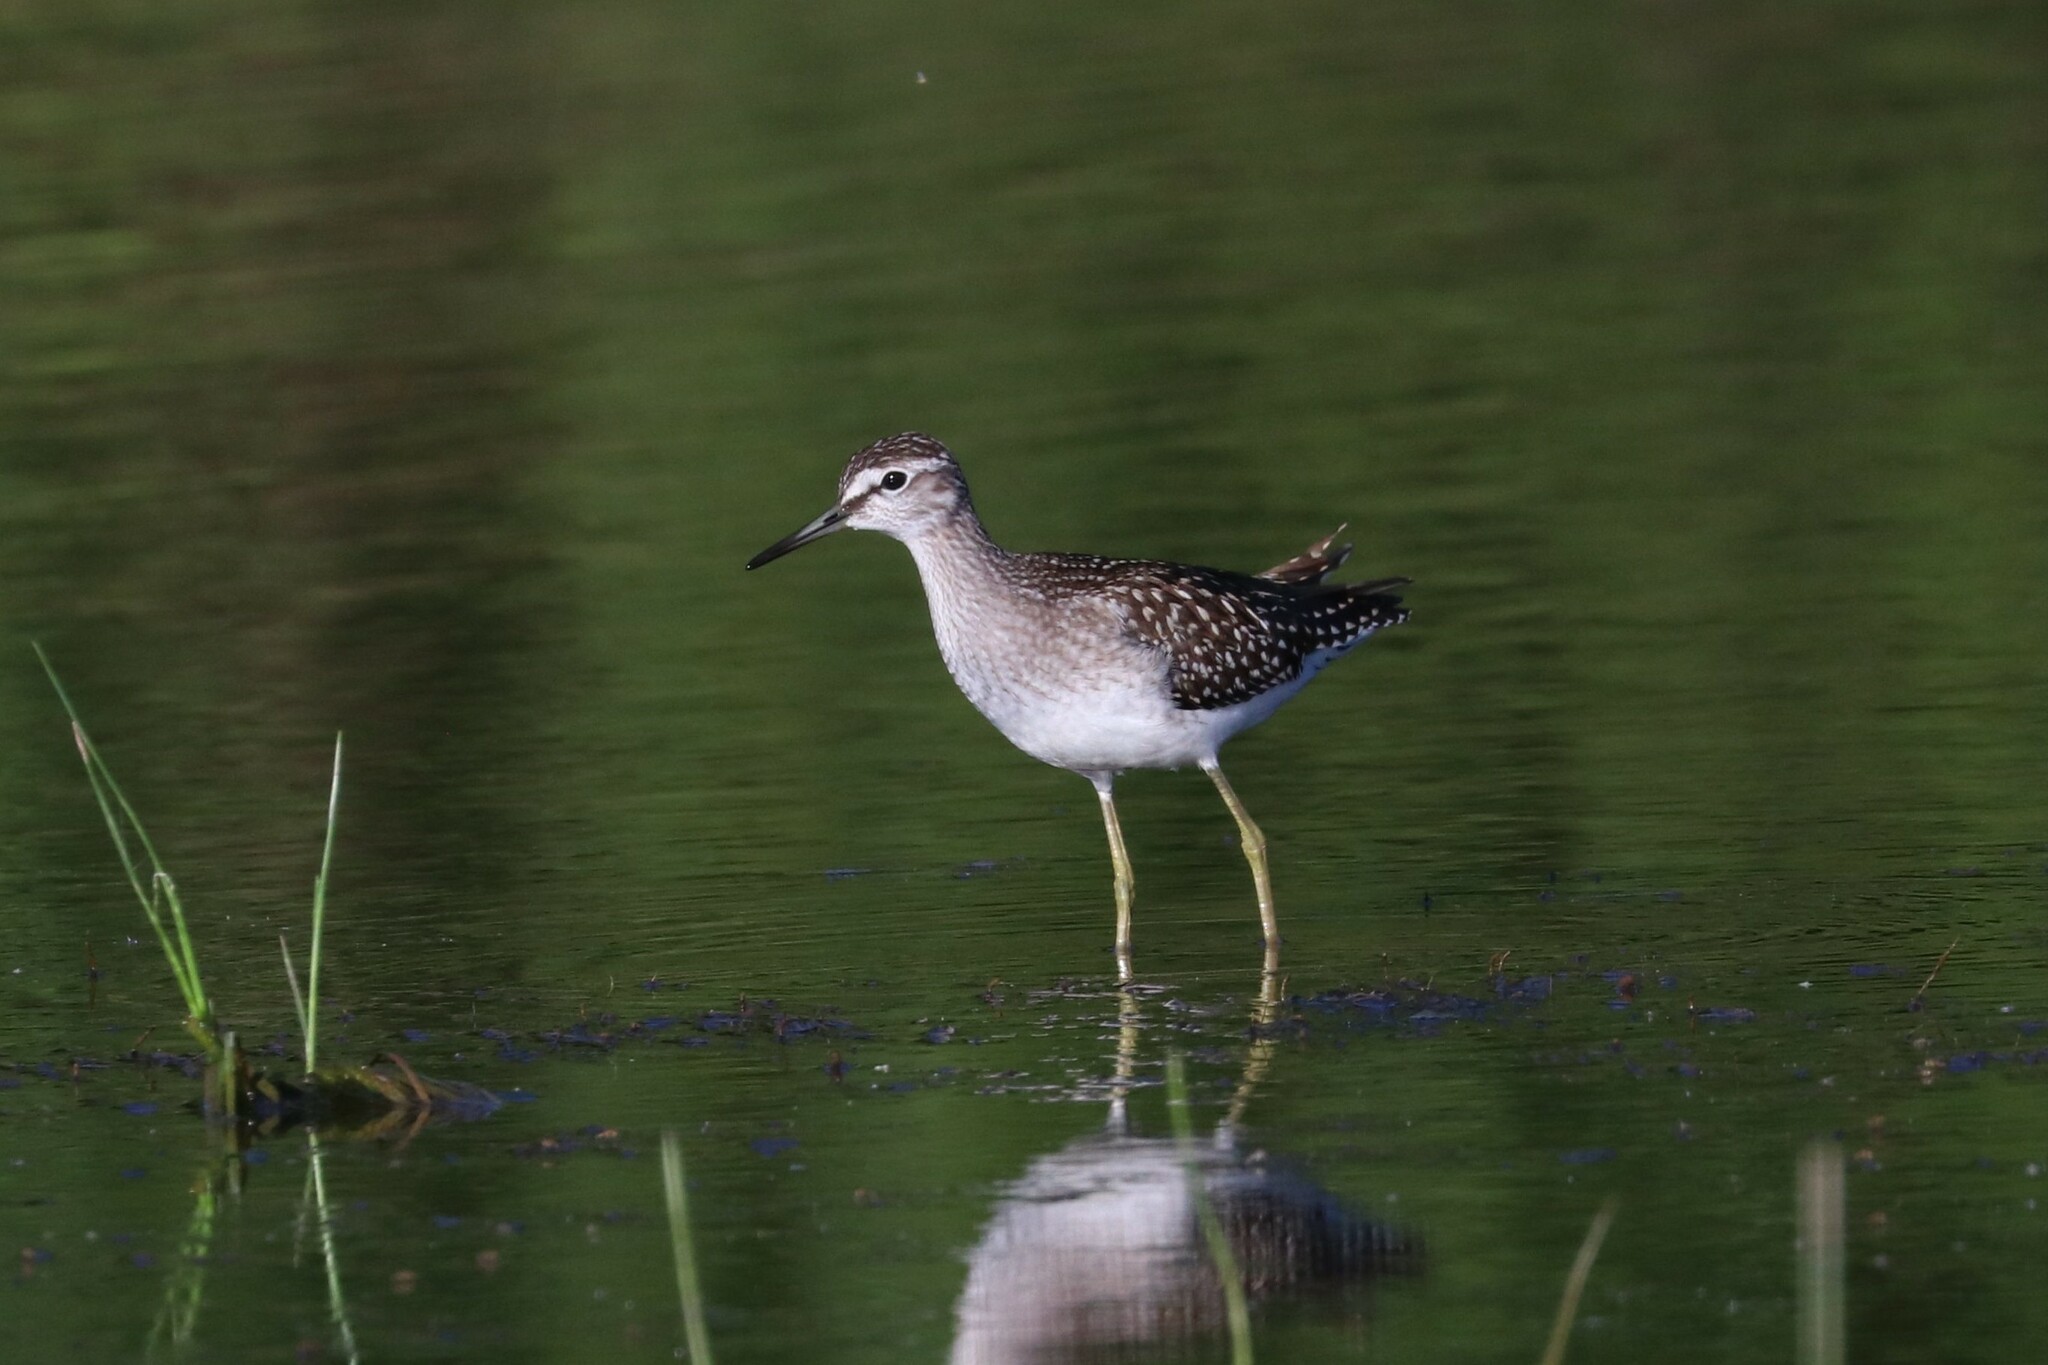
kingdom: Animalia
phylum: Chordata
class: Aves
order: Charadriiformes
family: Scolopacidae
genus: Tringa
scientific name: Tringa glareola
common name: Wood sandpiper
